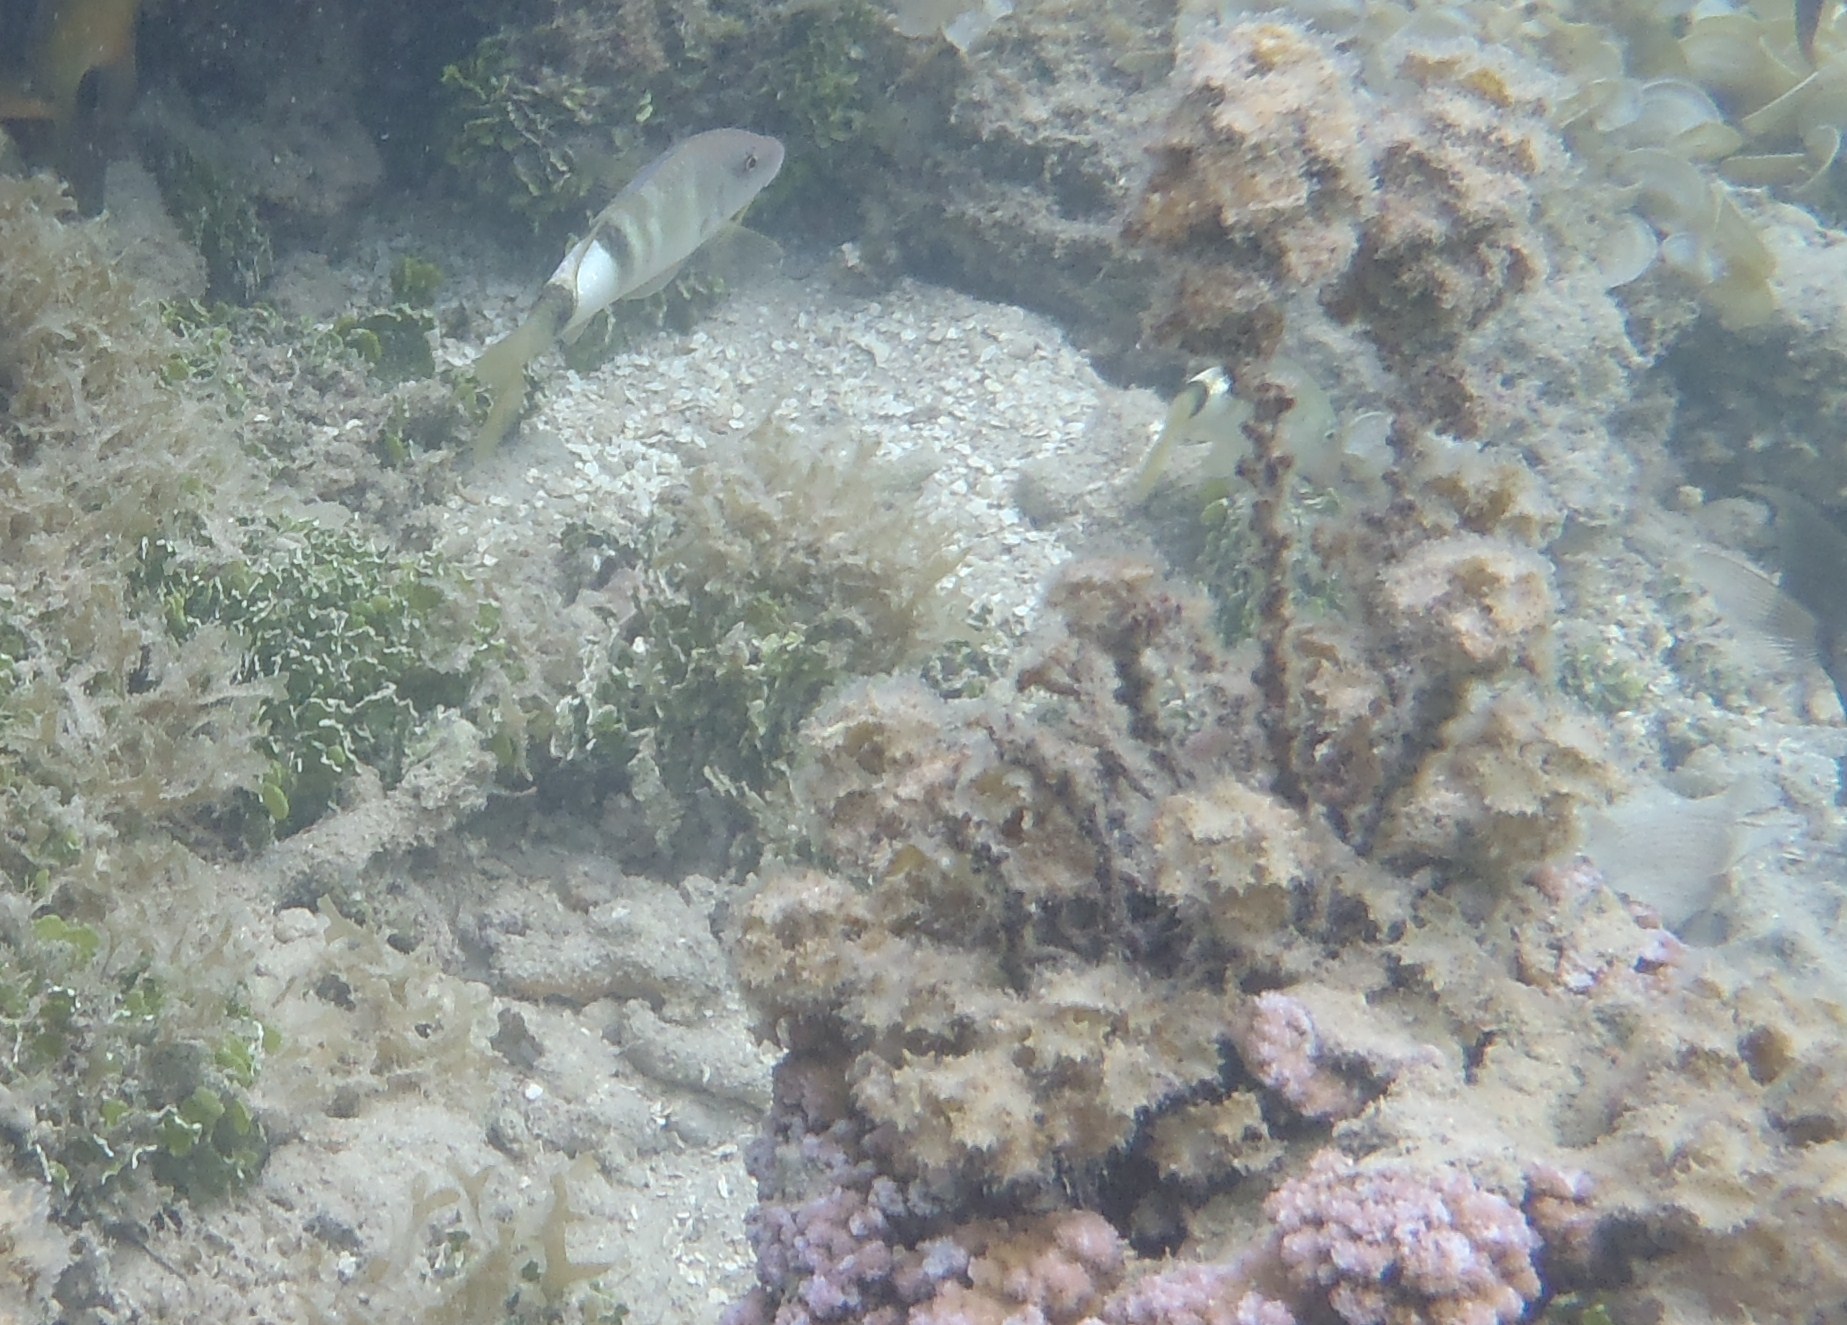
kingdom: Animalia
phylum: Chordata
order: Perciformes
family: Mullidae
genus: Parupeneus
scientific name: Parupeneus multifasciatus
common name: Manybar goatfish
